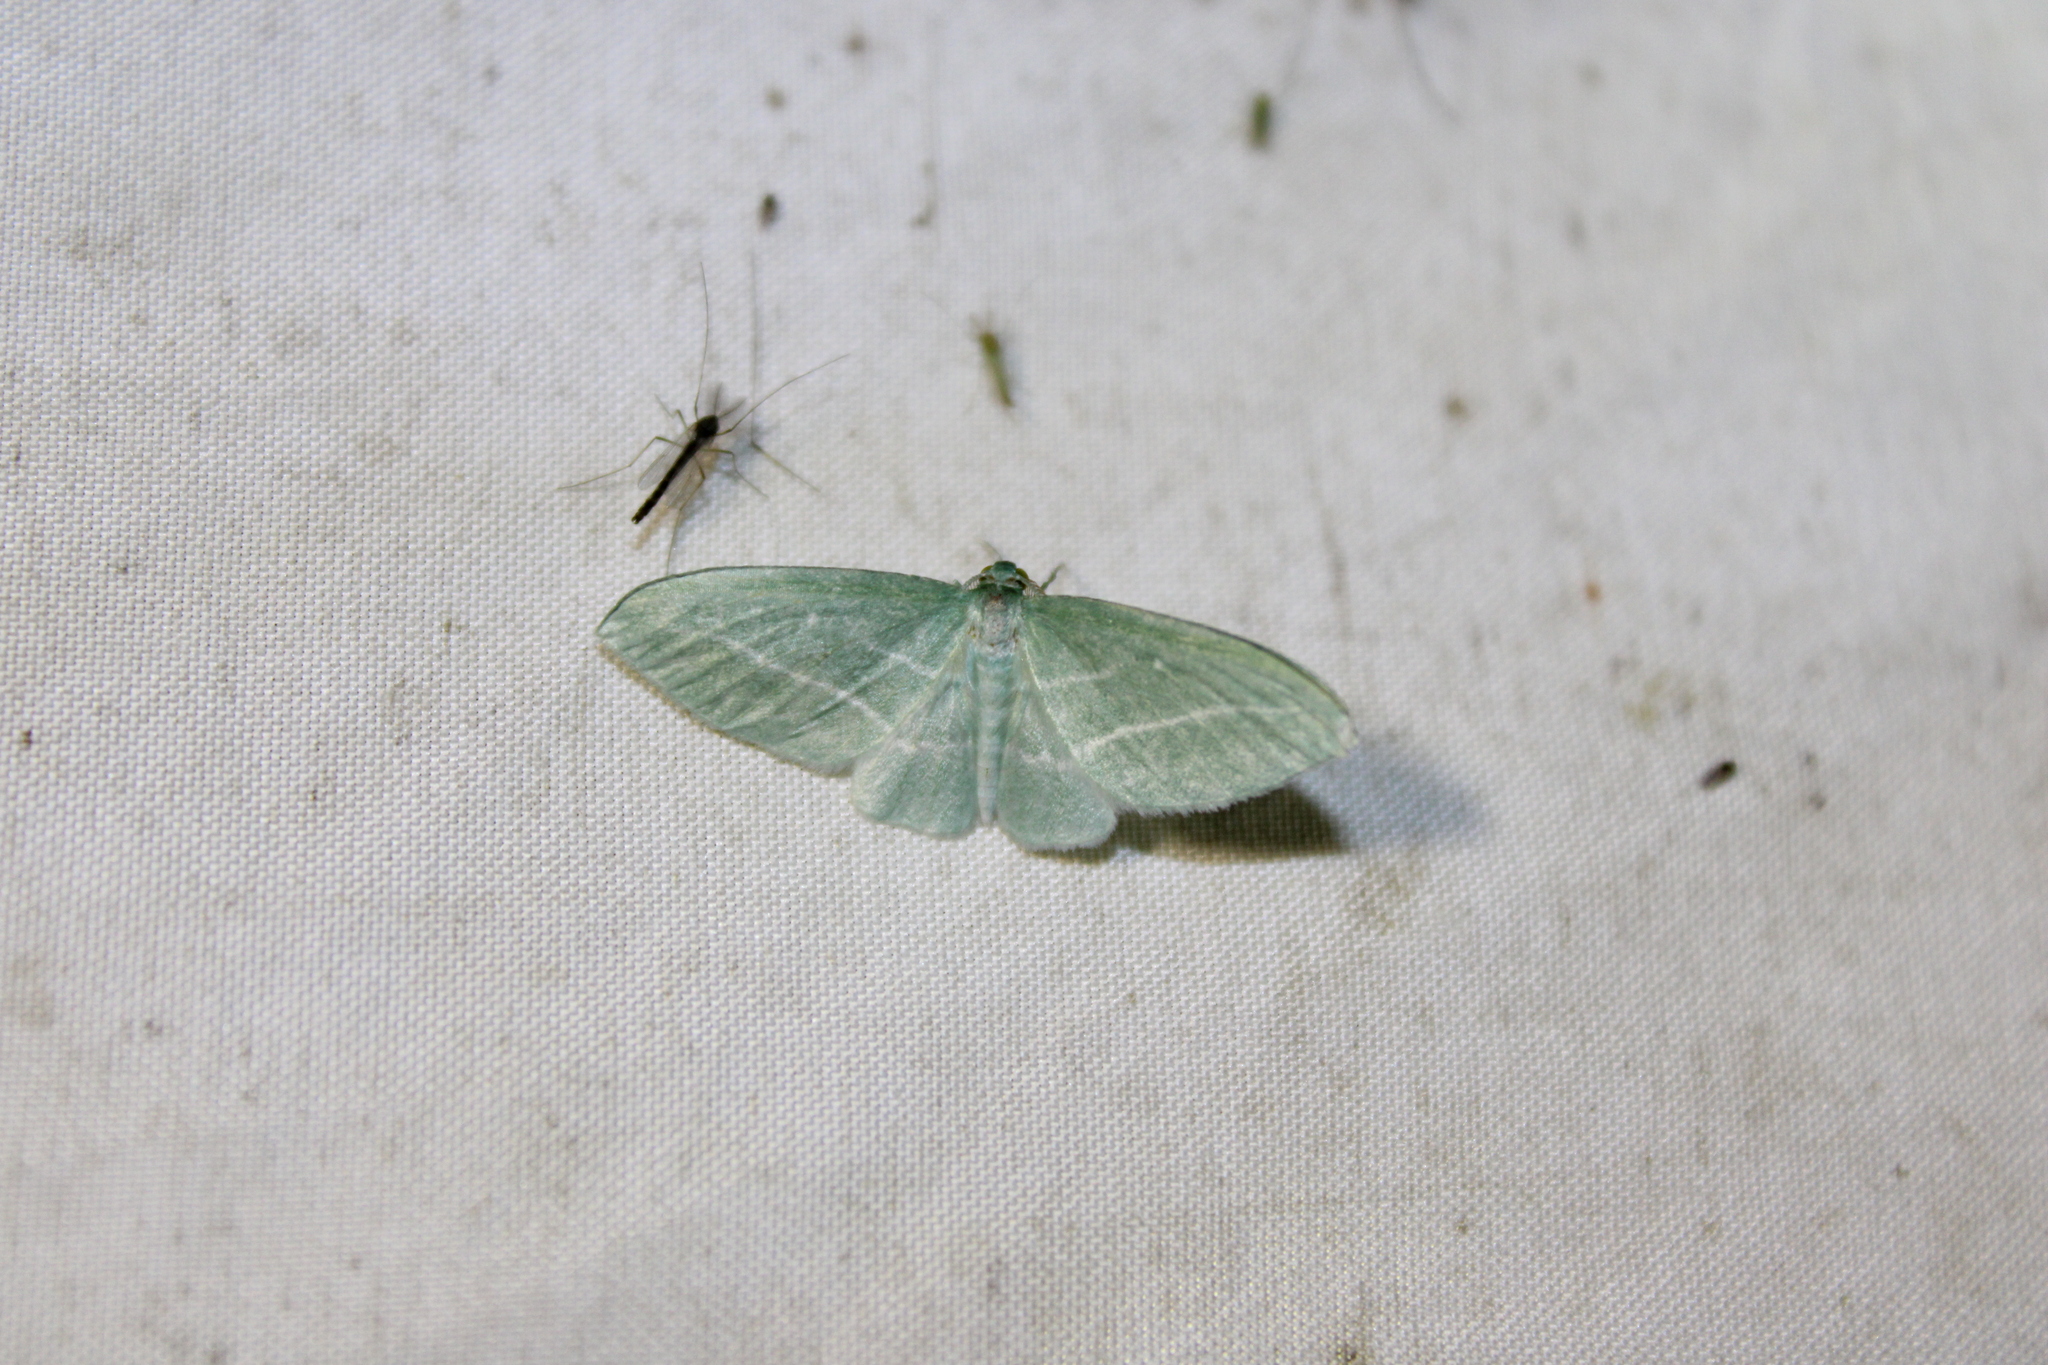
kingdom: Animalia
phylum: Arthropoda
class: Insecta
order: Lepidoptera
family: Geometridae
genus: Dyspteris
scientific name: Dyspteris abortivaria
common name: Bad-wing
